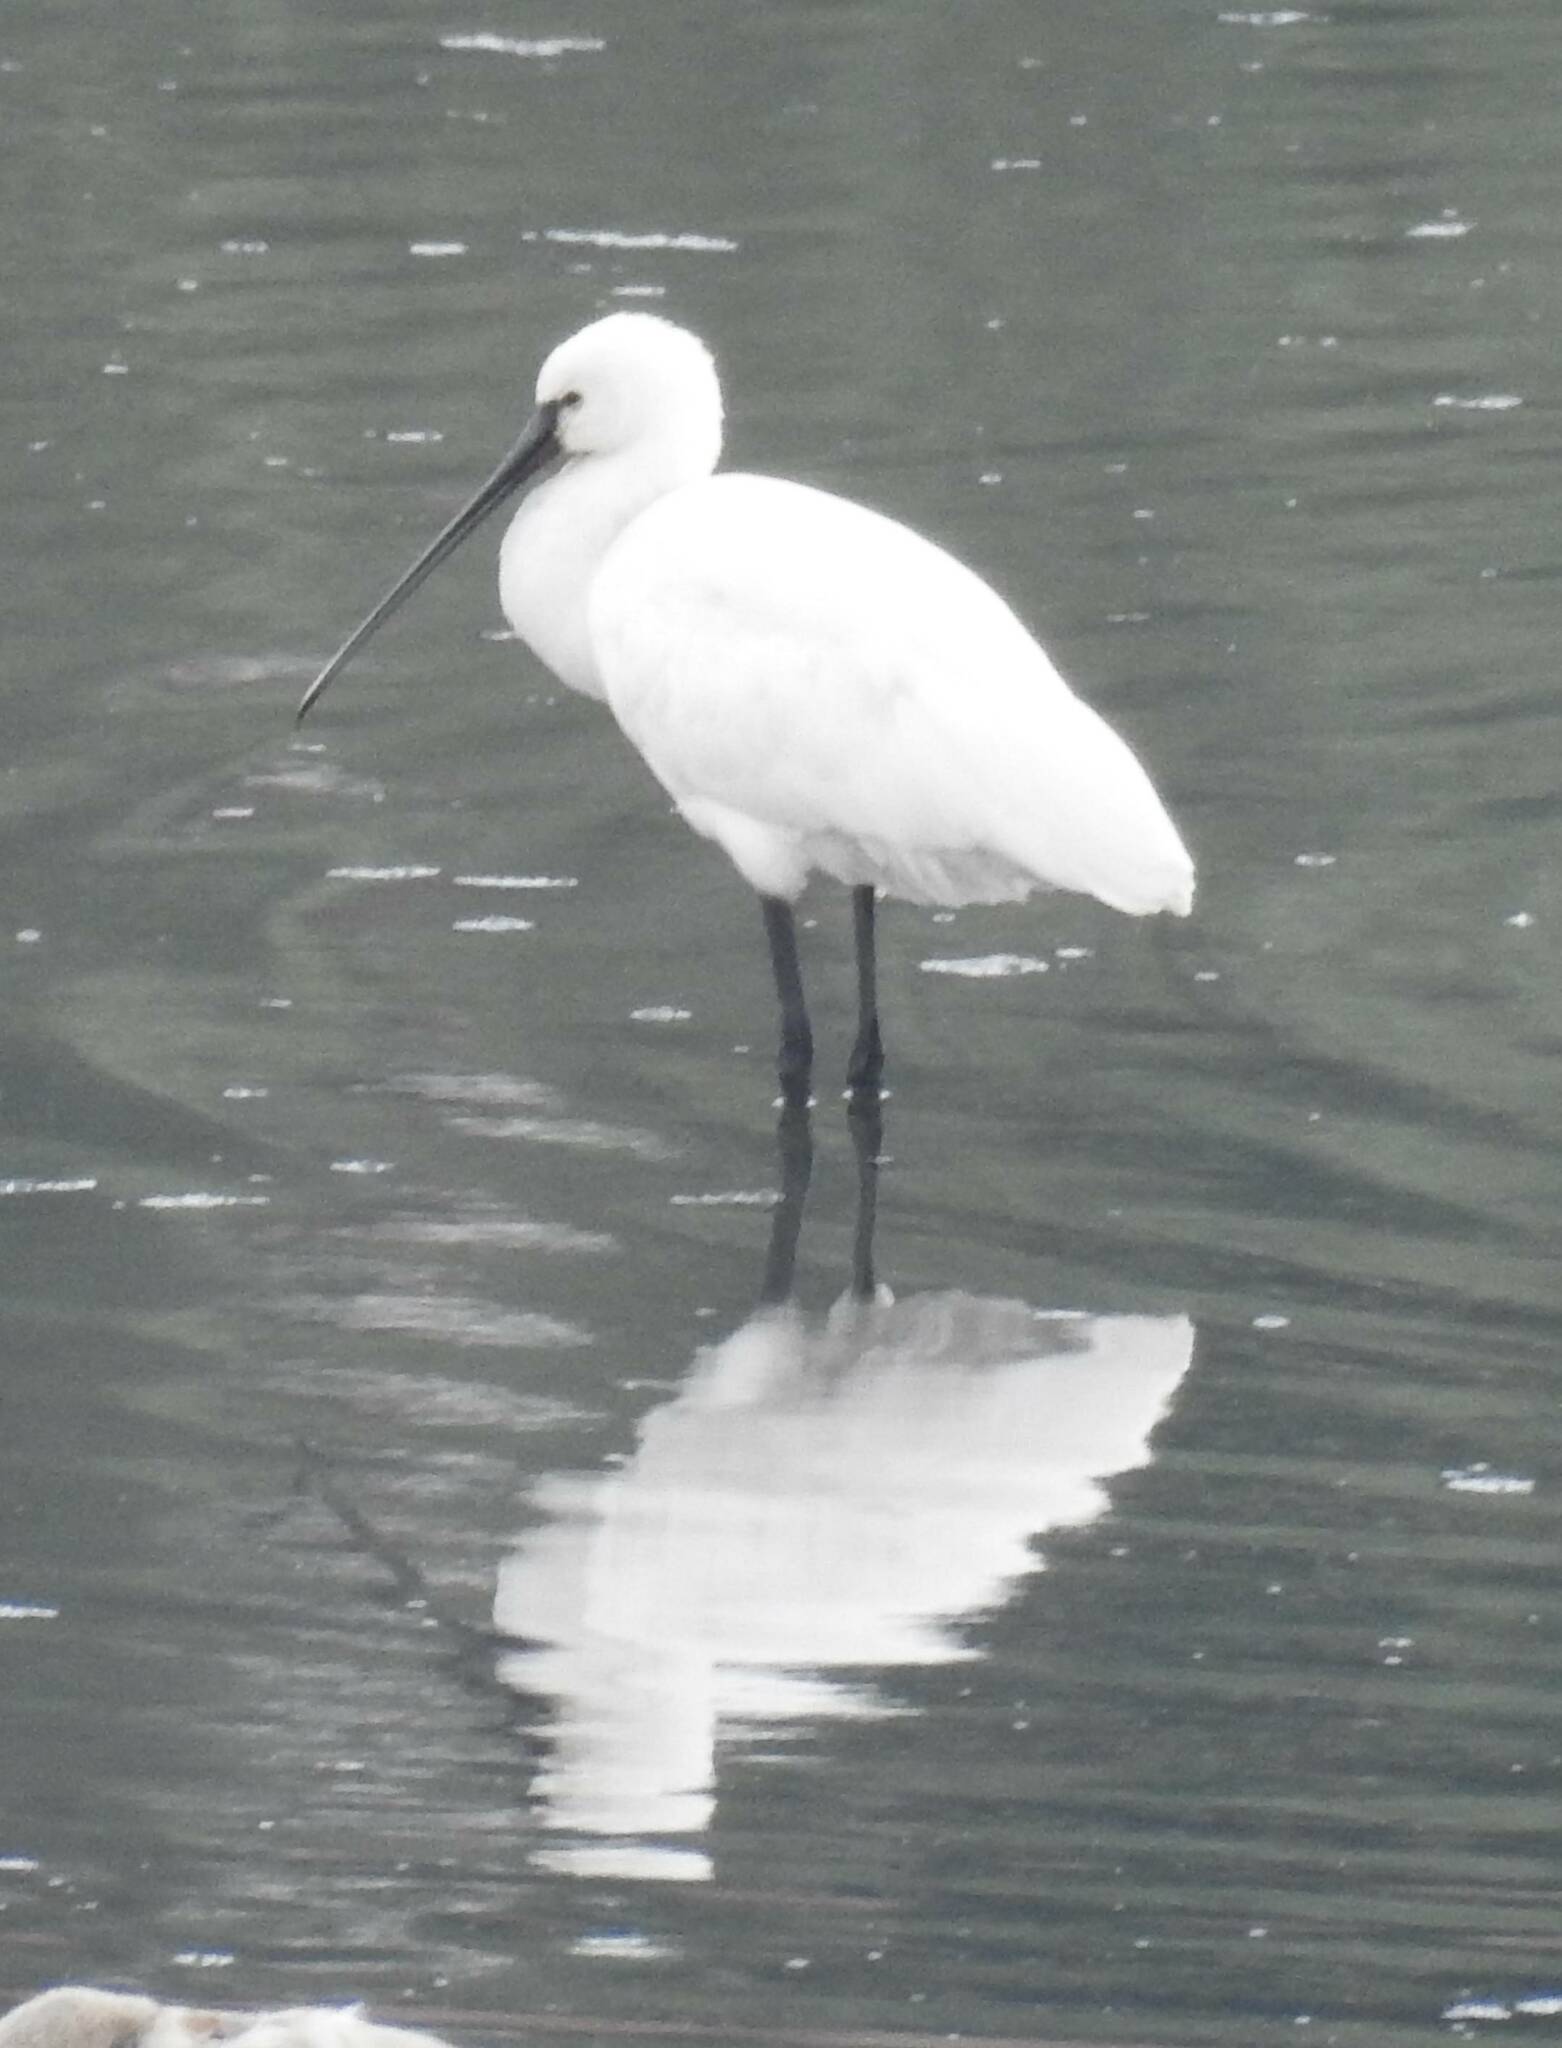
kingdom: Animalia
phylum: Chordata
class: Aves
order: Pelecaniformes
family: Threskiornithidae
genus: Platalea
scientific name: Platalea leucorodia
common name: Eurasian spoonbill
